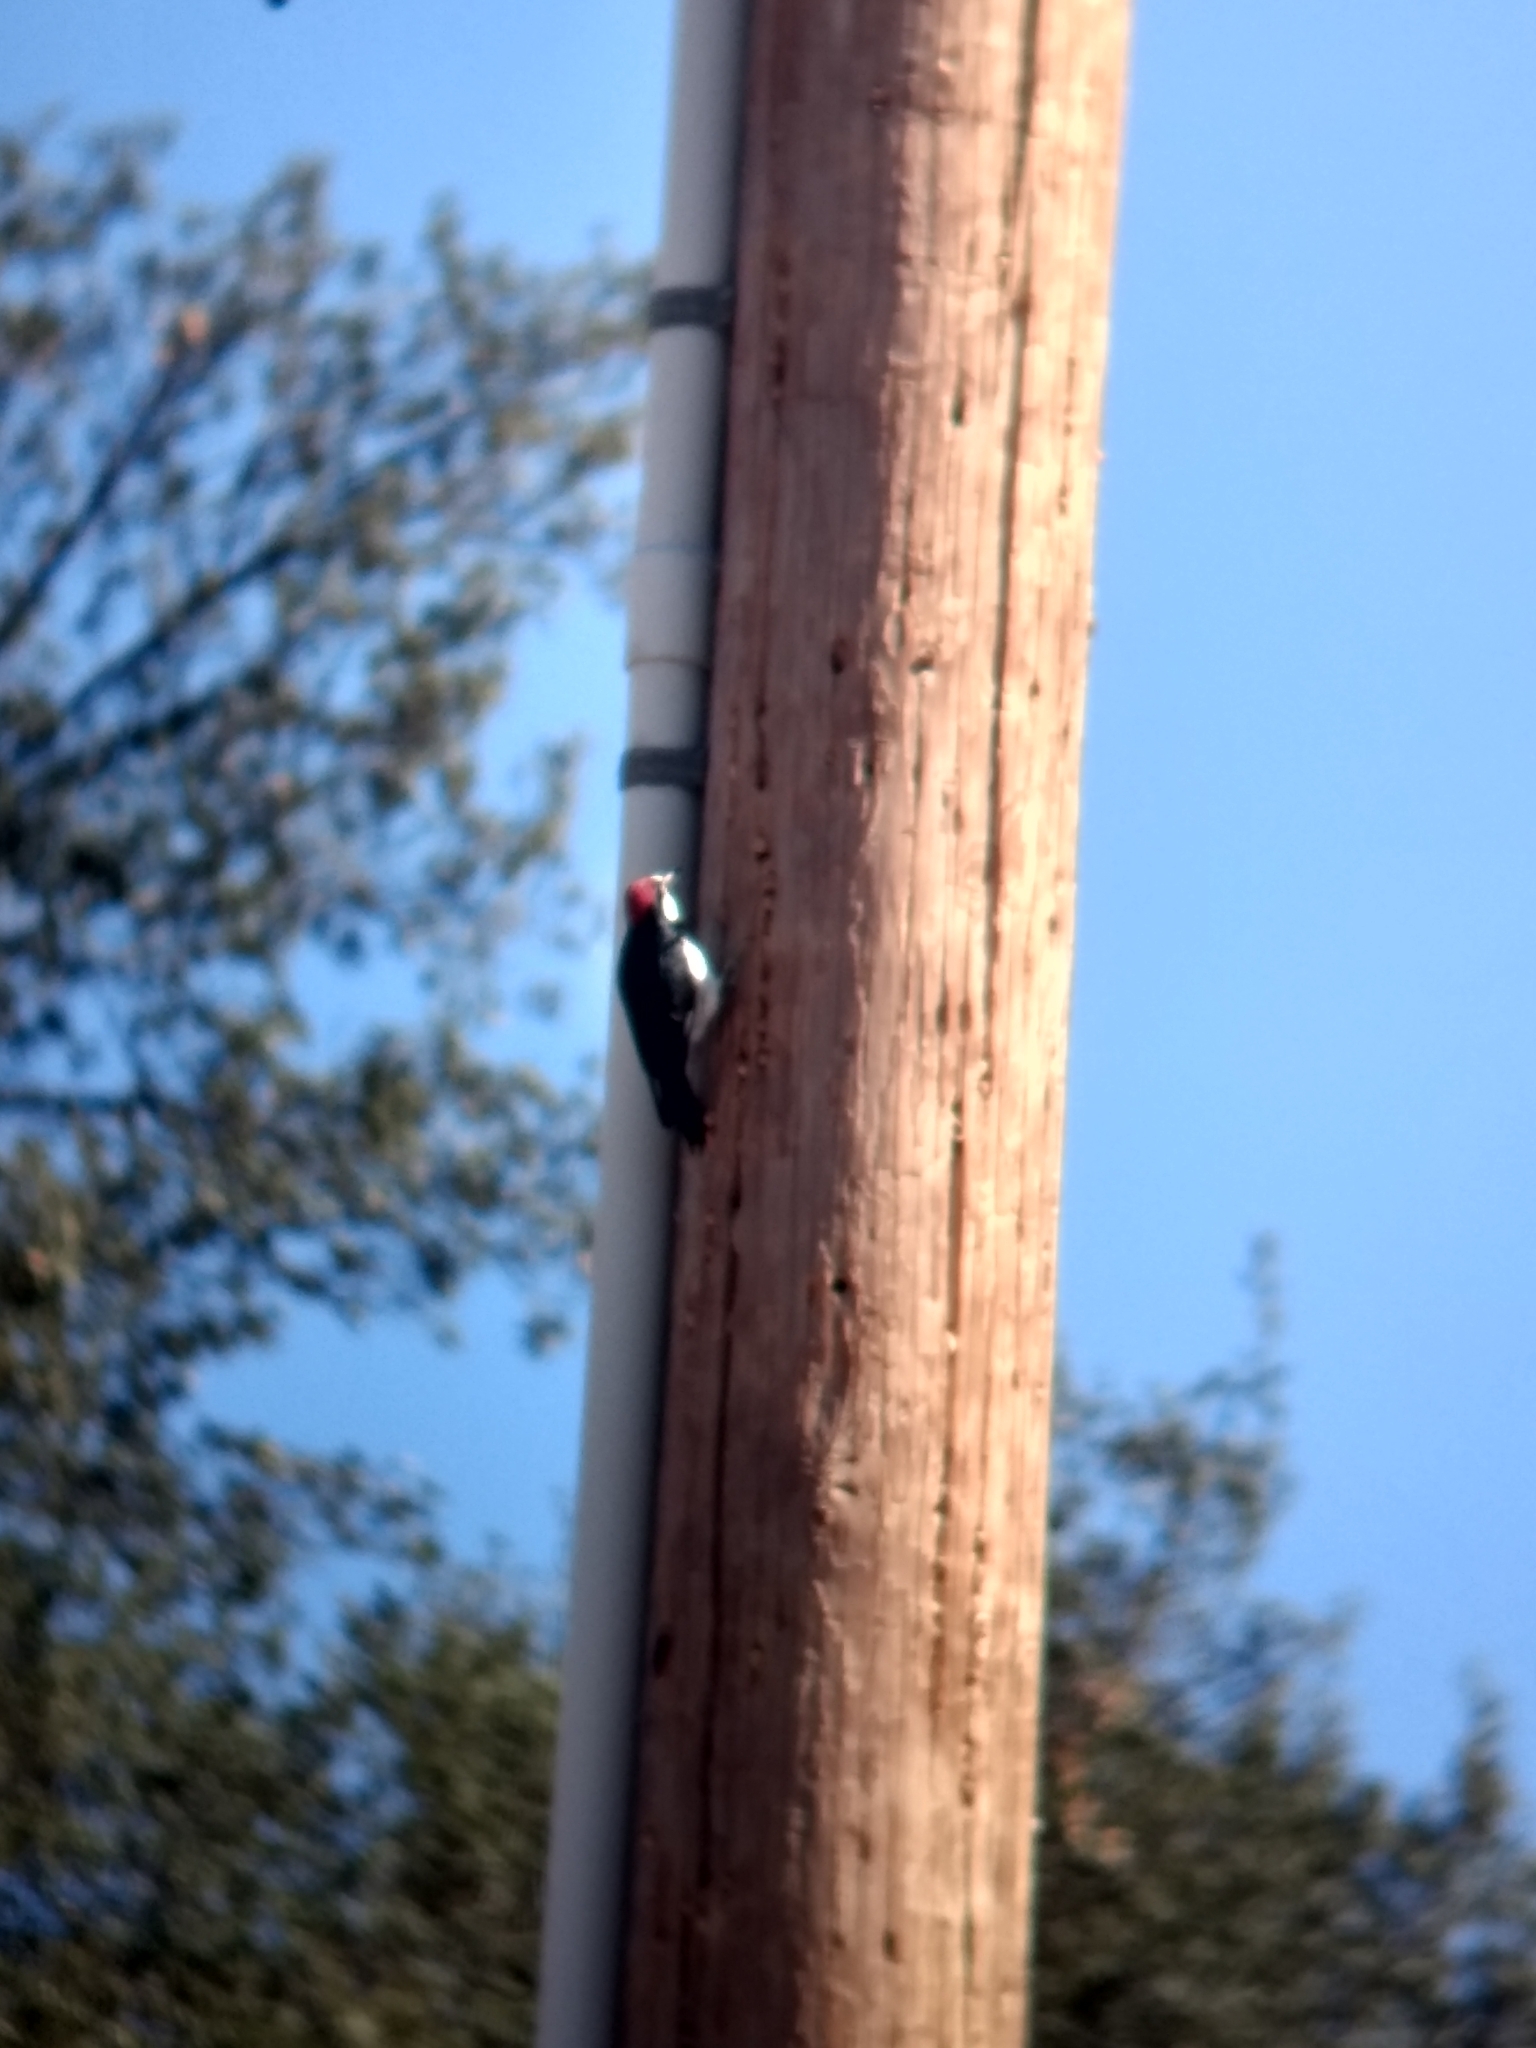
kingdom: Animalia
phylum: Chordata
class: Aves
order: Piciformes
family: Picidae
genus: Melanerpes
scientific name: Melanerpes formicivorus
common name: Acorn woodpecker
